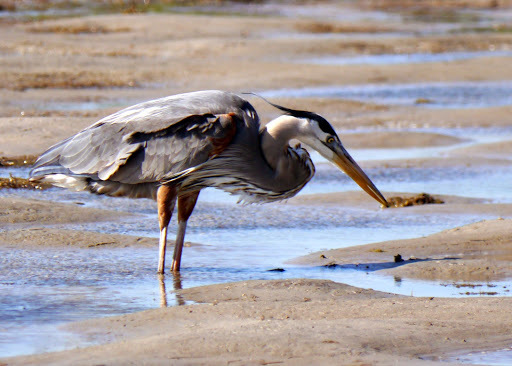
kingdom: Animalia
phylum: Chordata
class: Aves
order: Pelecaniformes
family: Ardeidae
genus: Ardea
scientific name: Ardea herodias
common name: Great blue heron
